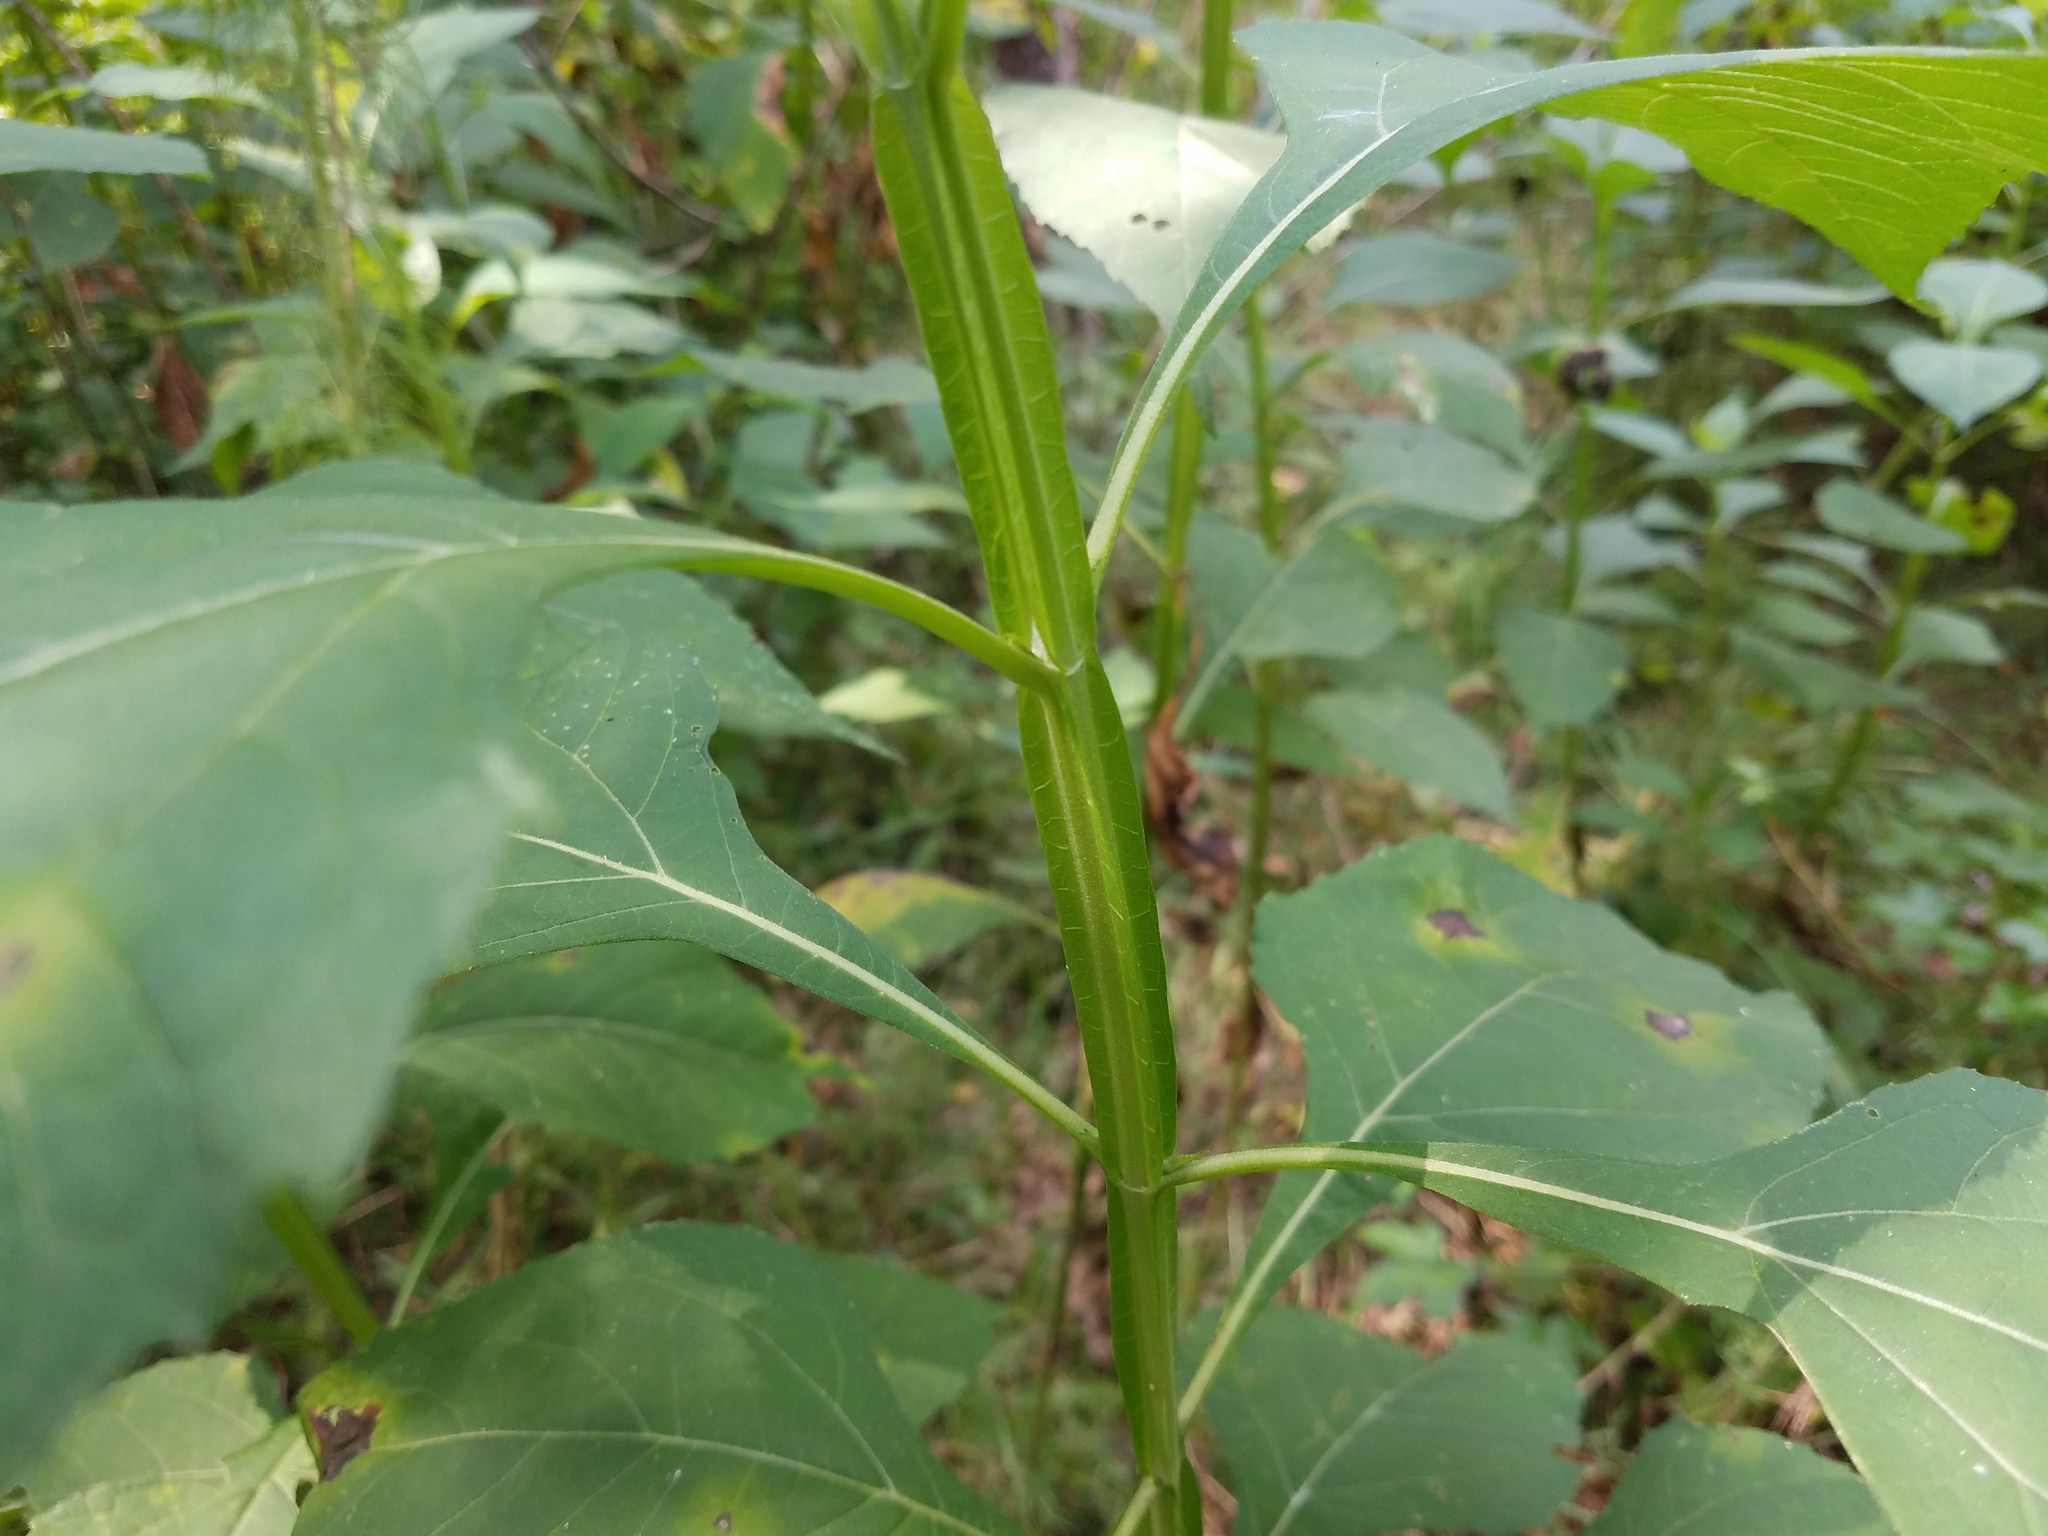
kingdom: Plantae
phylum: Tracheophyta
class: Magnoliopsida
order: Asterales
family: Asteraceae
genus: Verbesina
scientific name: Verbesina occidentalis
